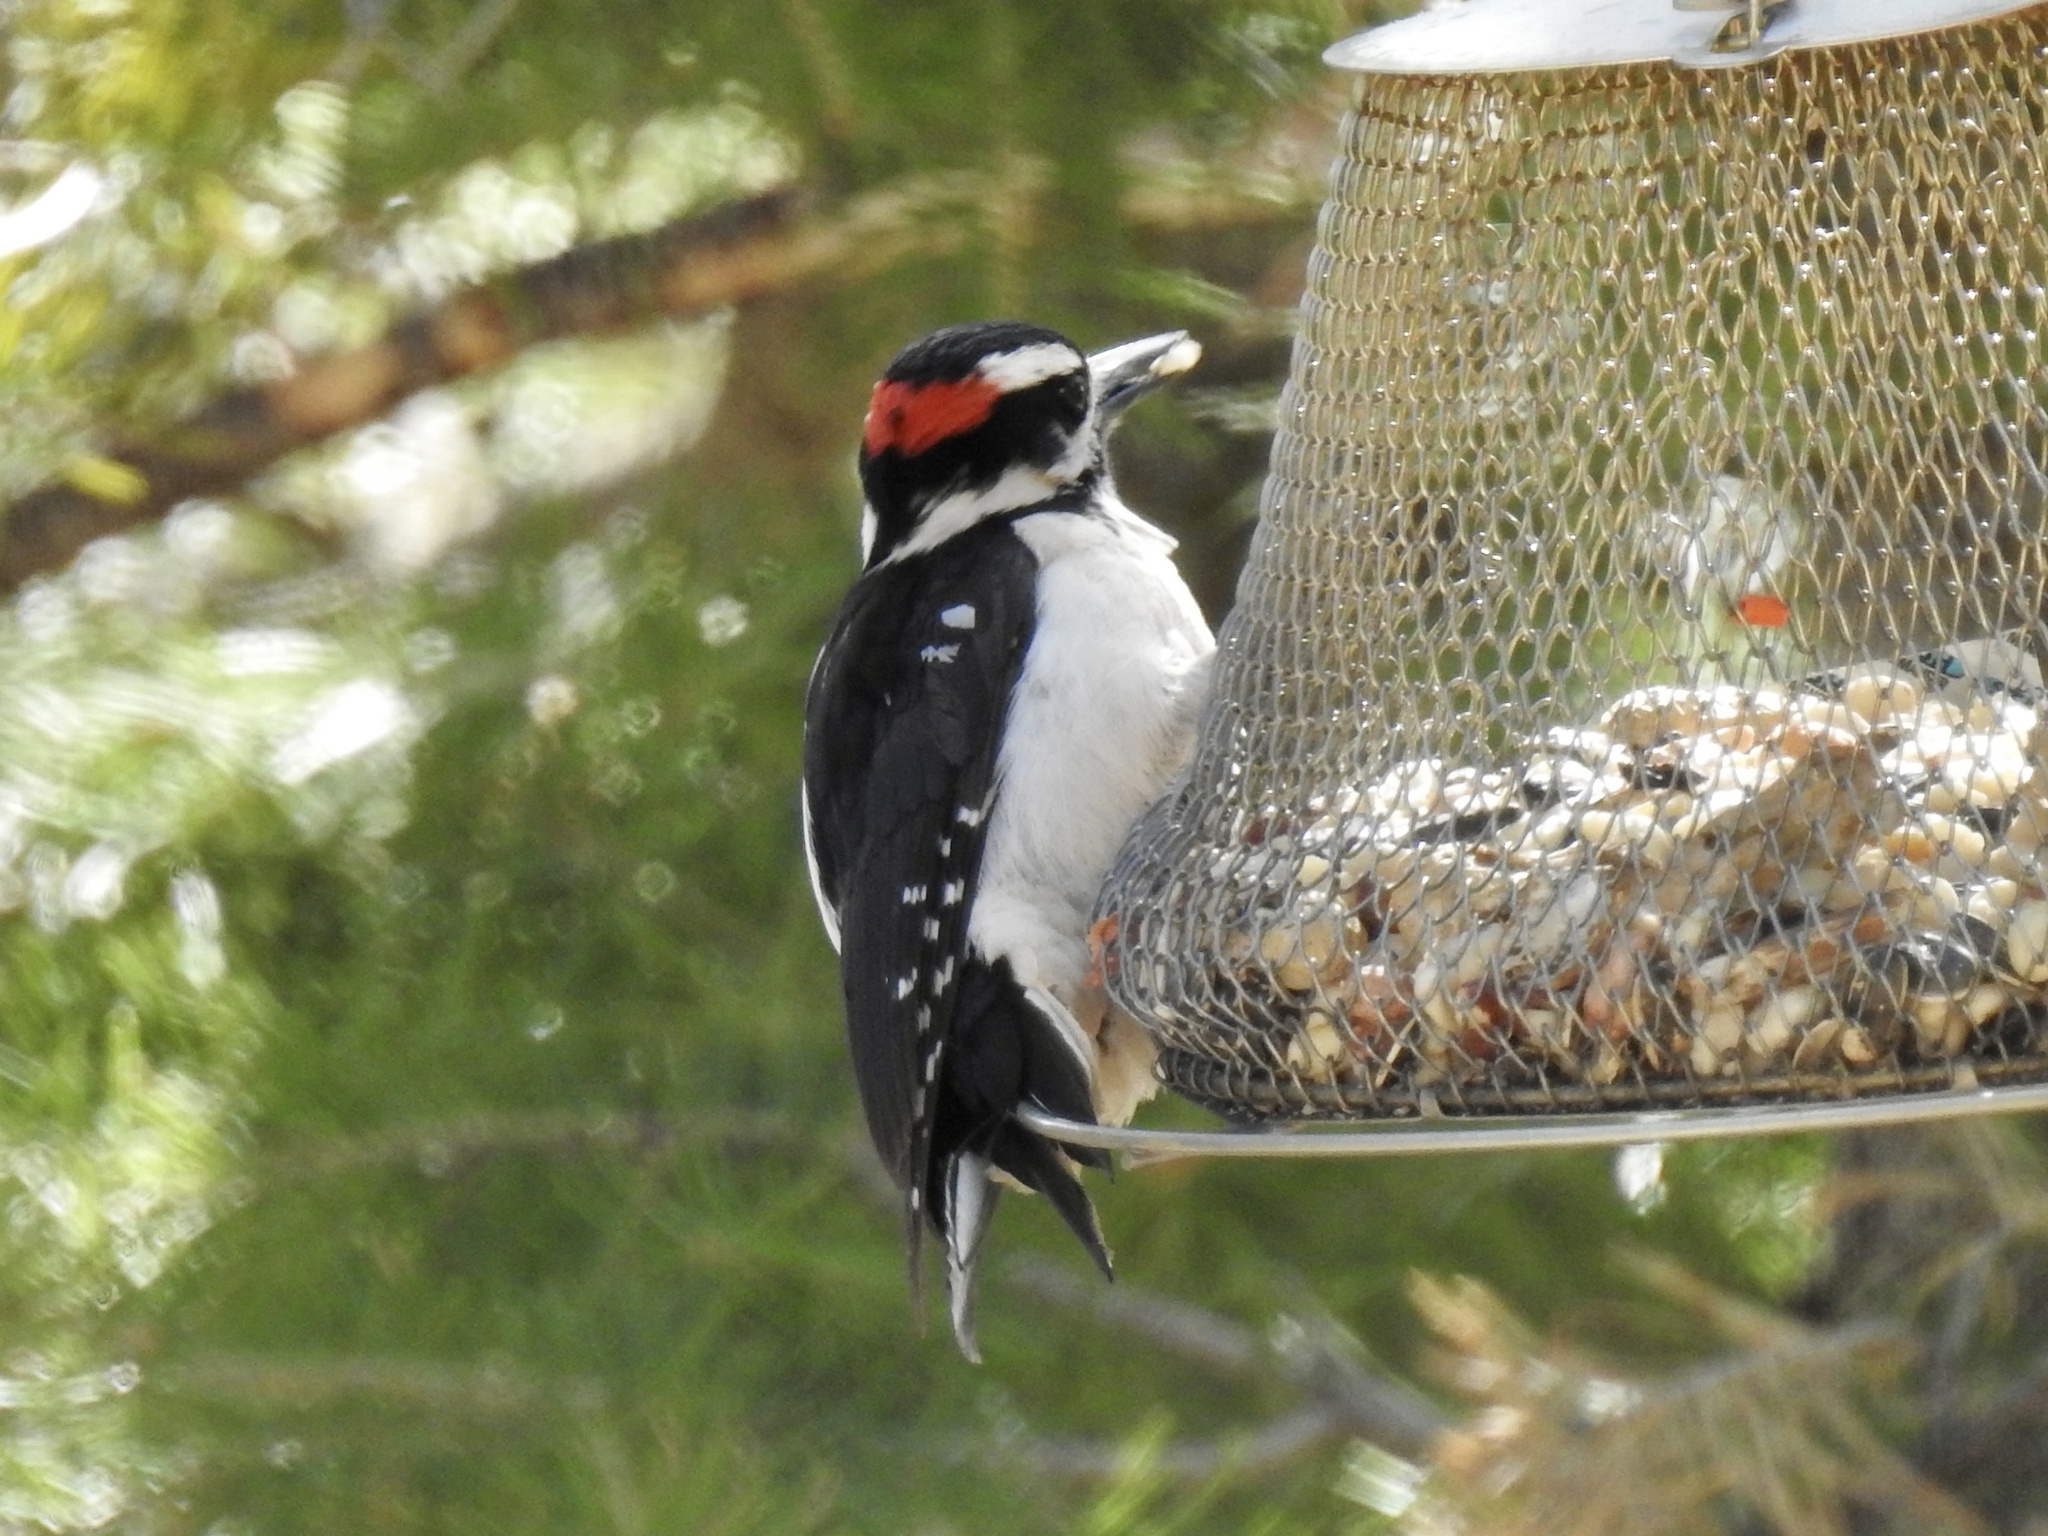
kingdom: Animalia
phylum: Chordata
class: Aves
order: Piciformes
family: Picidae
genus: Leuconotopicus
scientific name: Leuconotopicus villosus
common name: Hairy woodpecker
